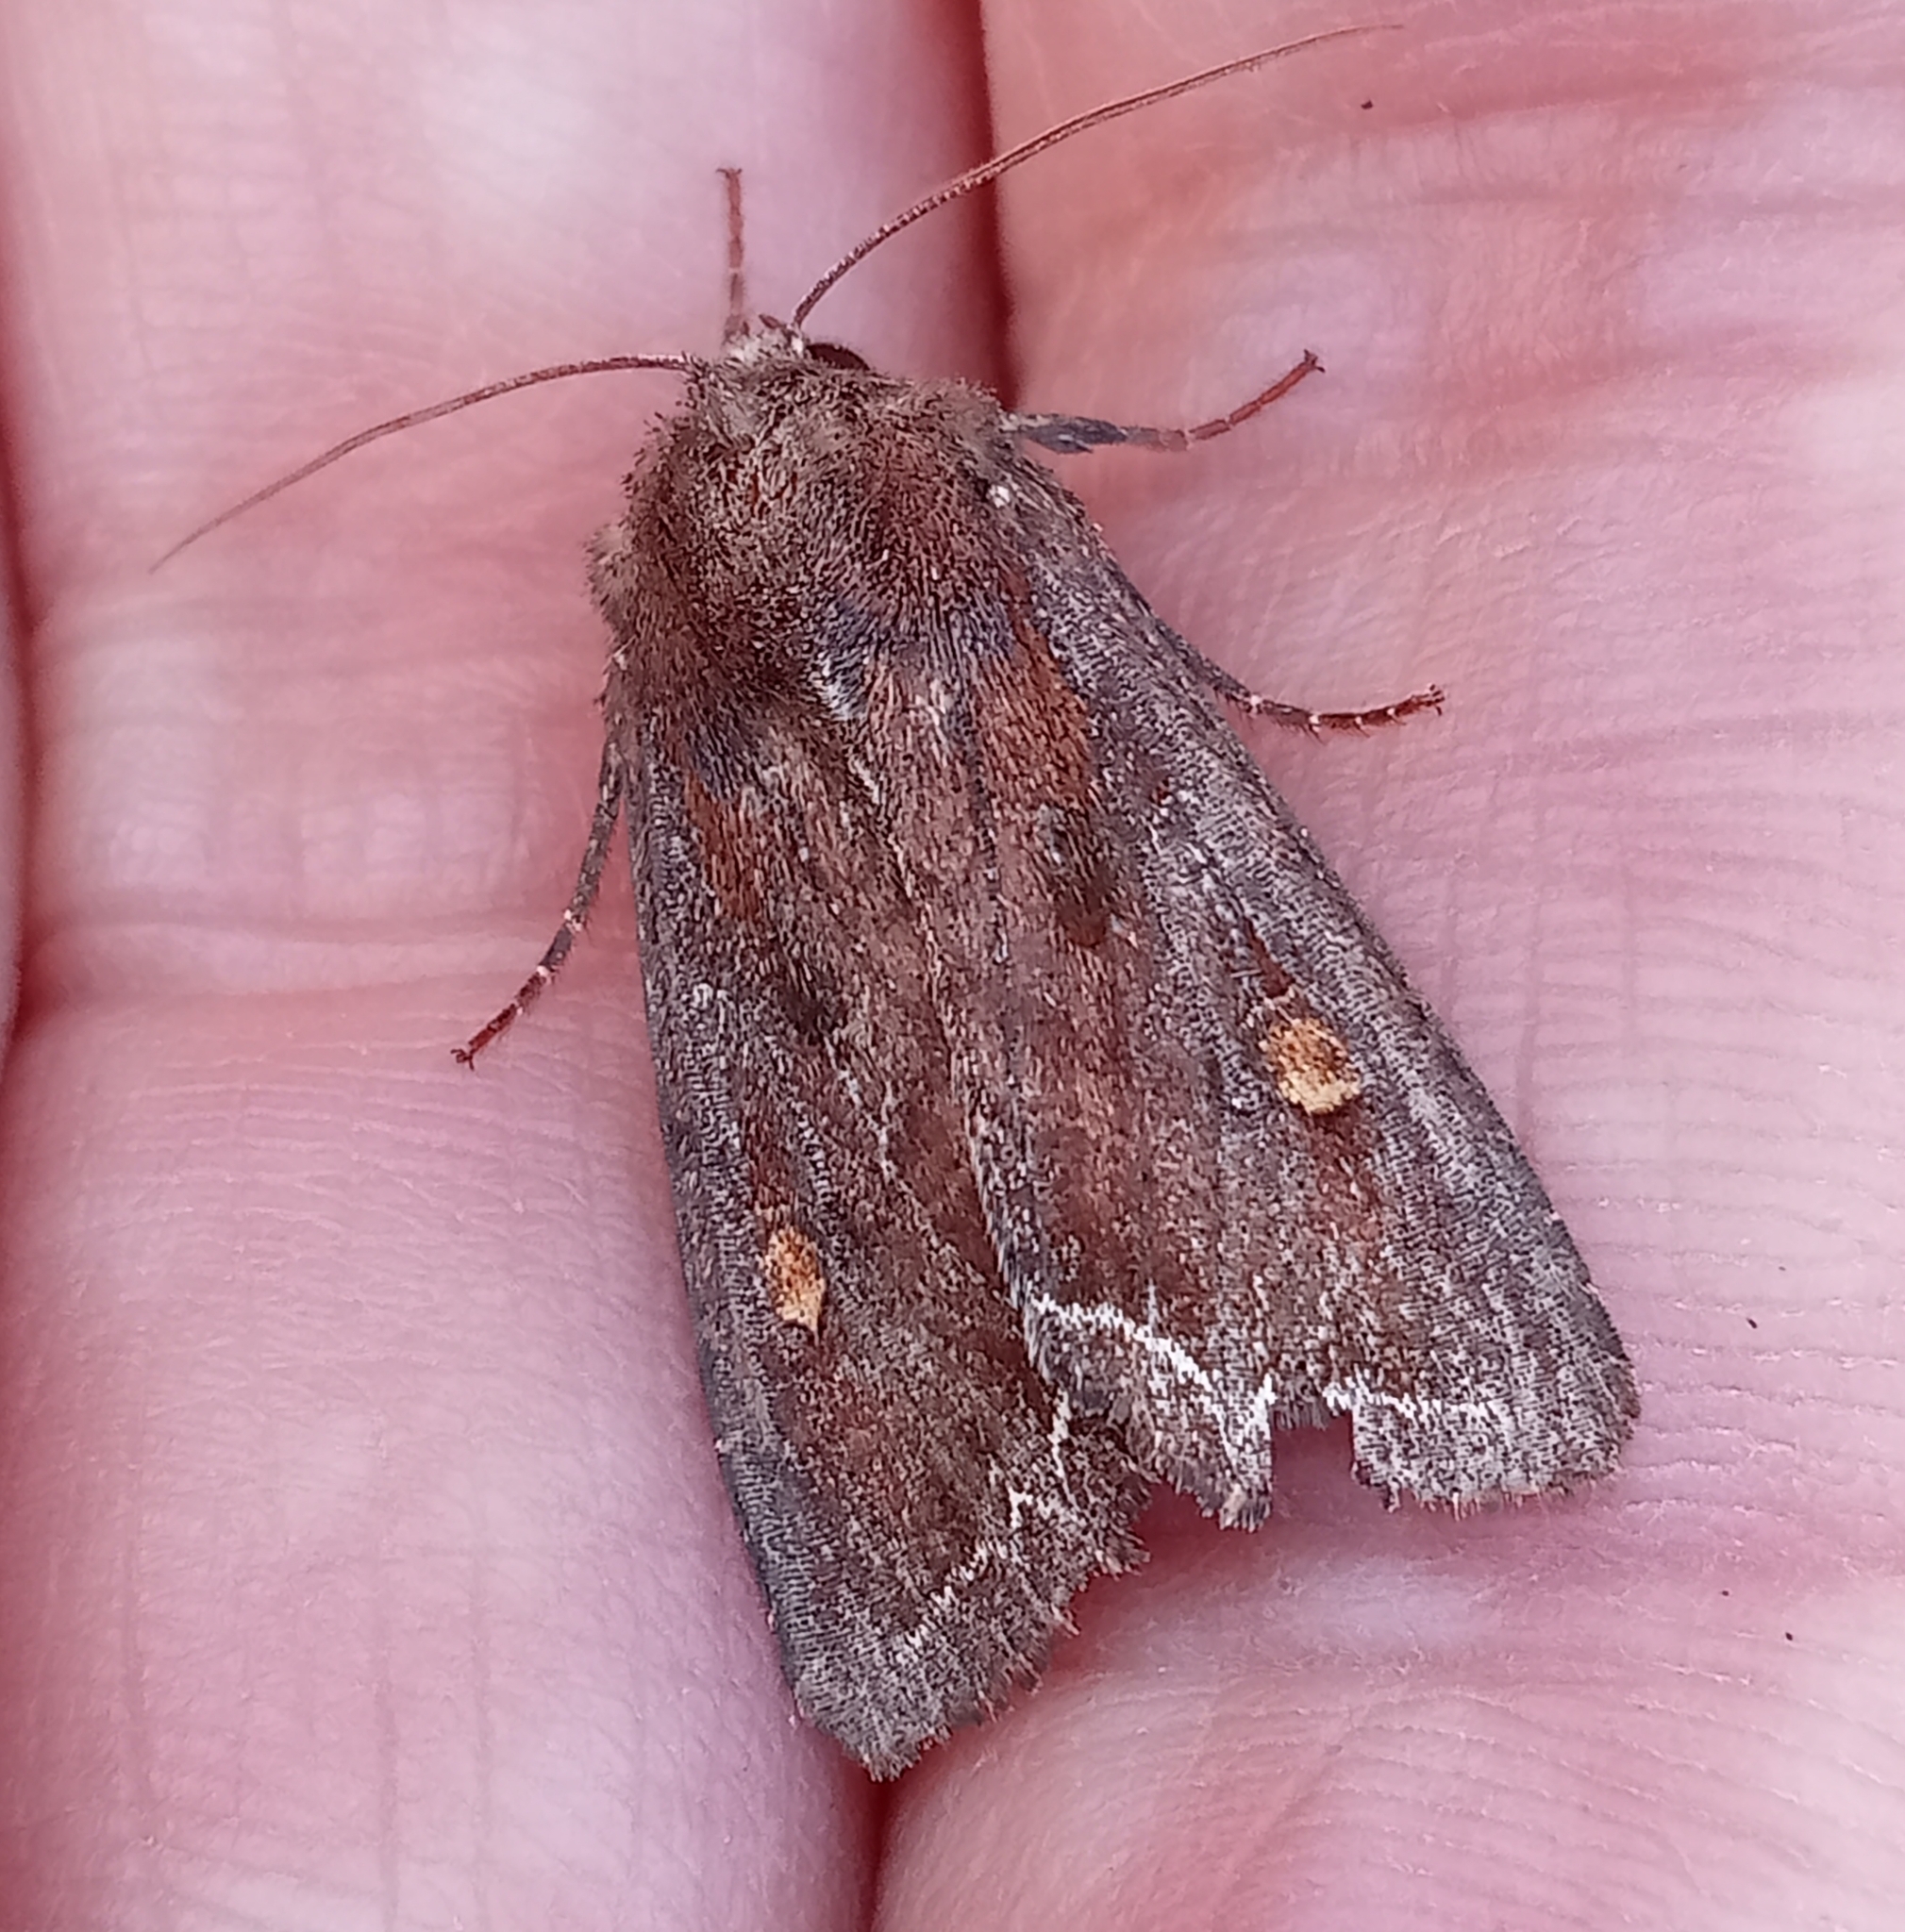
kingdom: Animalia
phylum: Arthropoda
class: Insecta
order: Lepidoptera
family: Noctuidae
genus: Lacanobia
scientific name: Lacanobia oleracea
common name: Bright-line brown-eye
